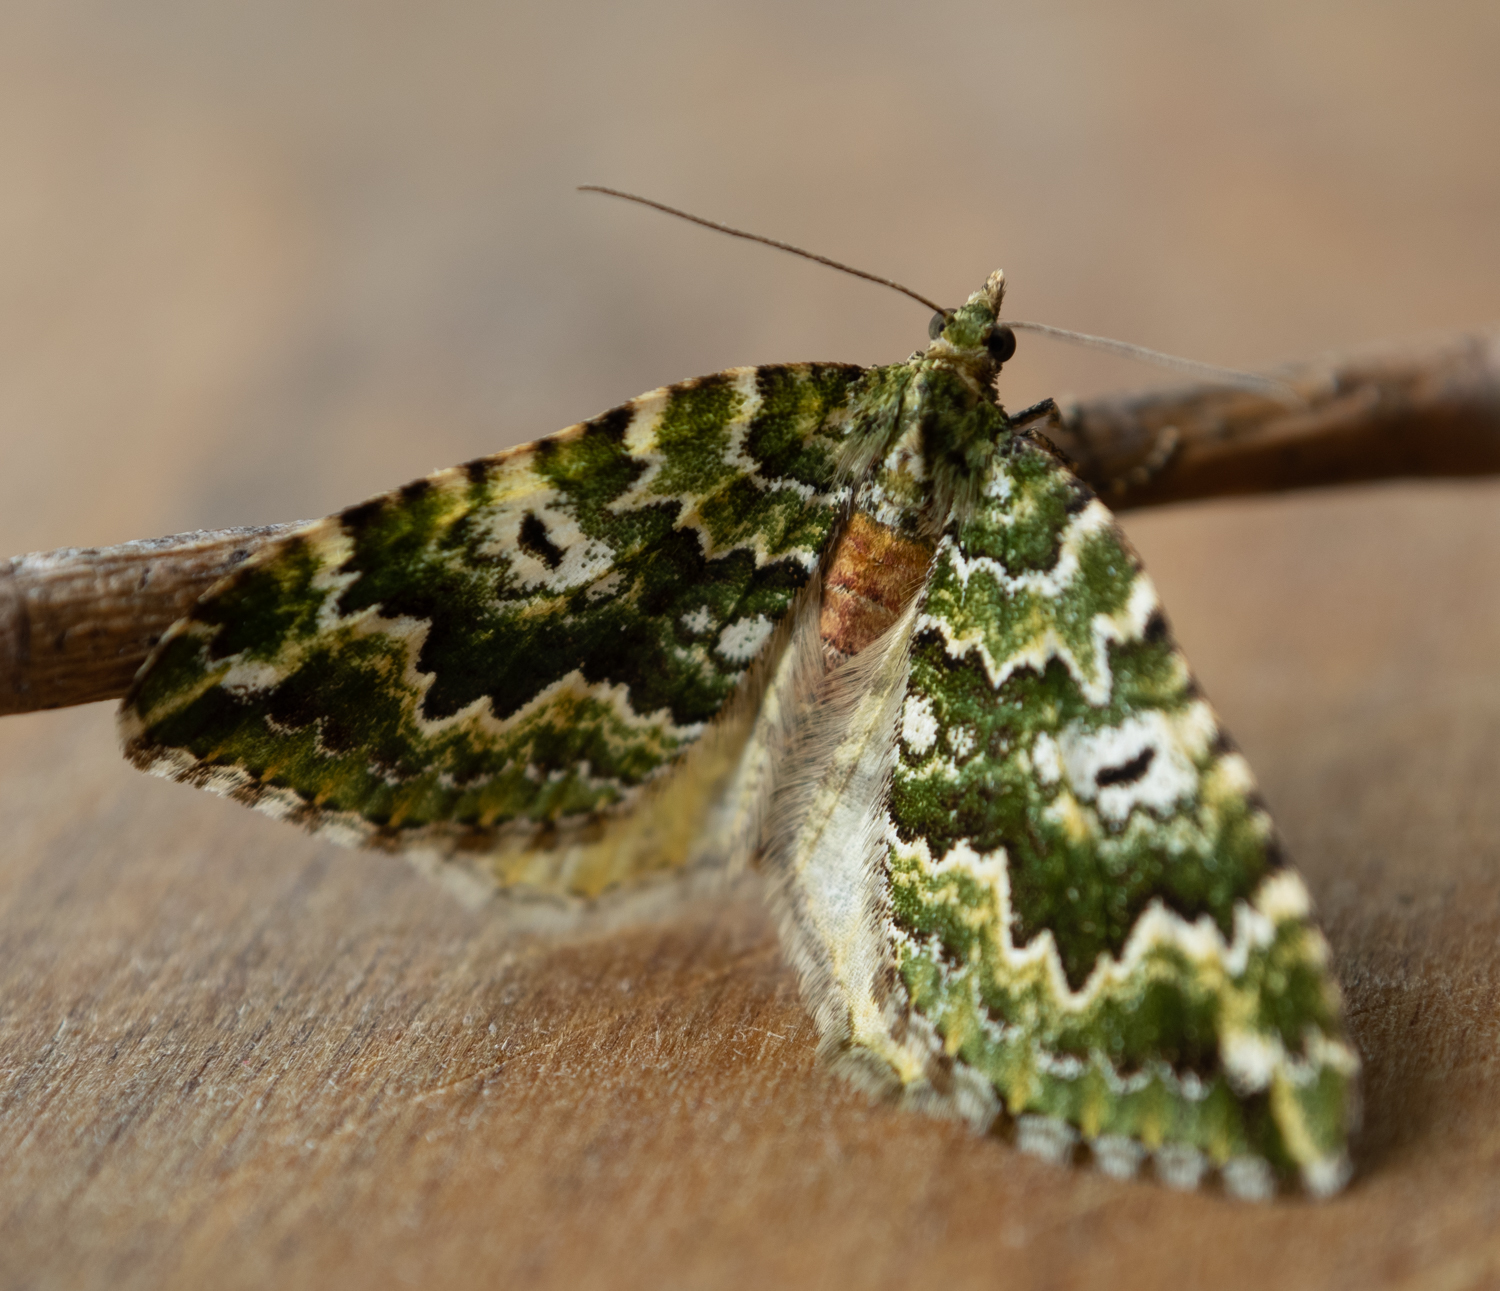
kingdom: Animalia
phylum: Arthropoda
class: Insecta
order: Lepidoptera
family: Geometridae
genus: Asaphodes
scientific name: Asaphodes beata
